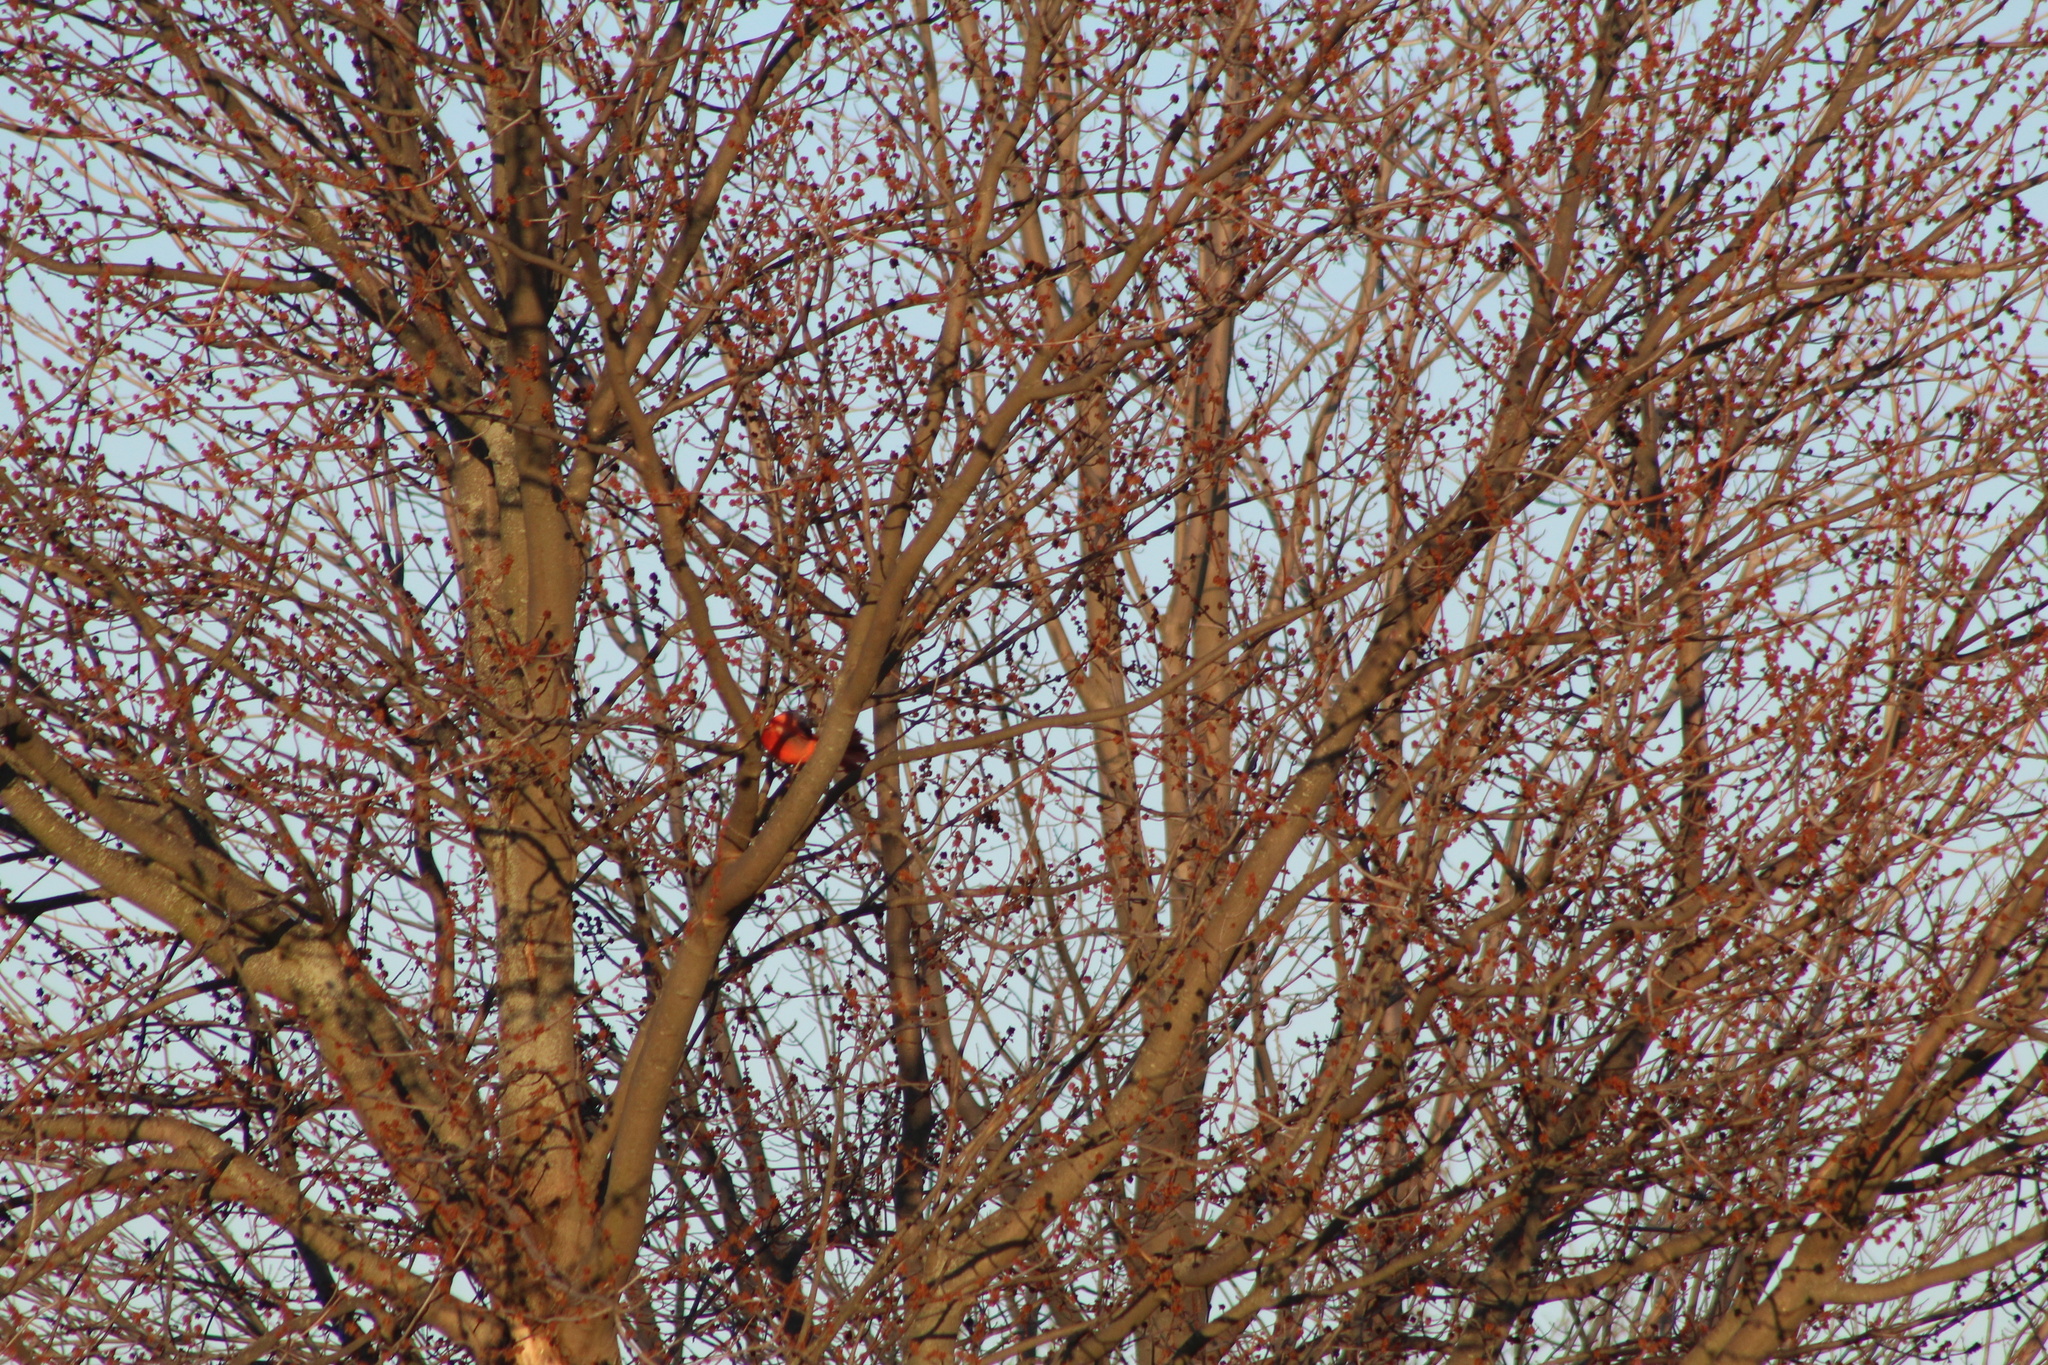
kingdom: Animalia
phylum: Chordata
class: Aves
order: Passeriformes
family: Cardinalidae
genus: Cardinalis
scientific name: Cardinalis cardinalis
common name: Northern cardinal
